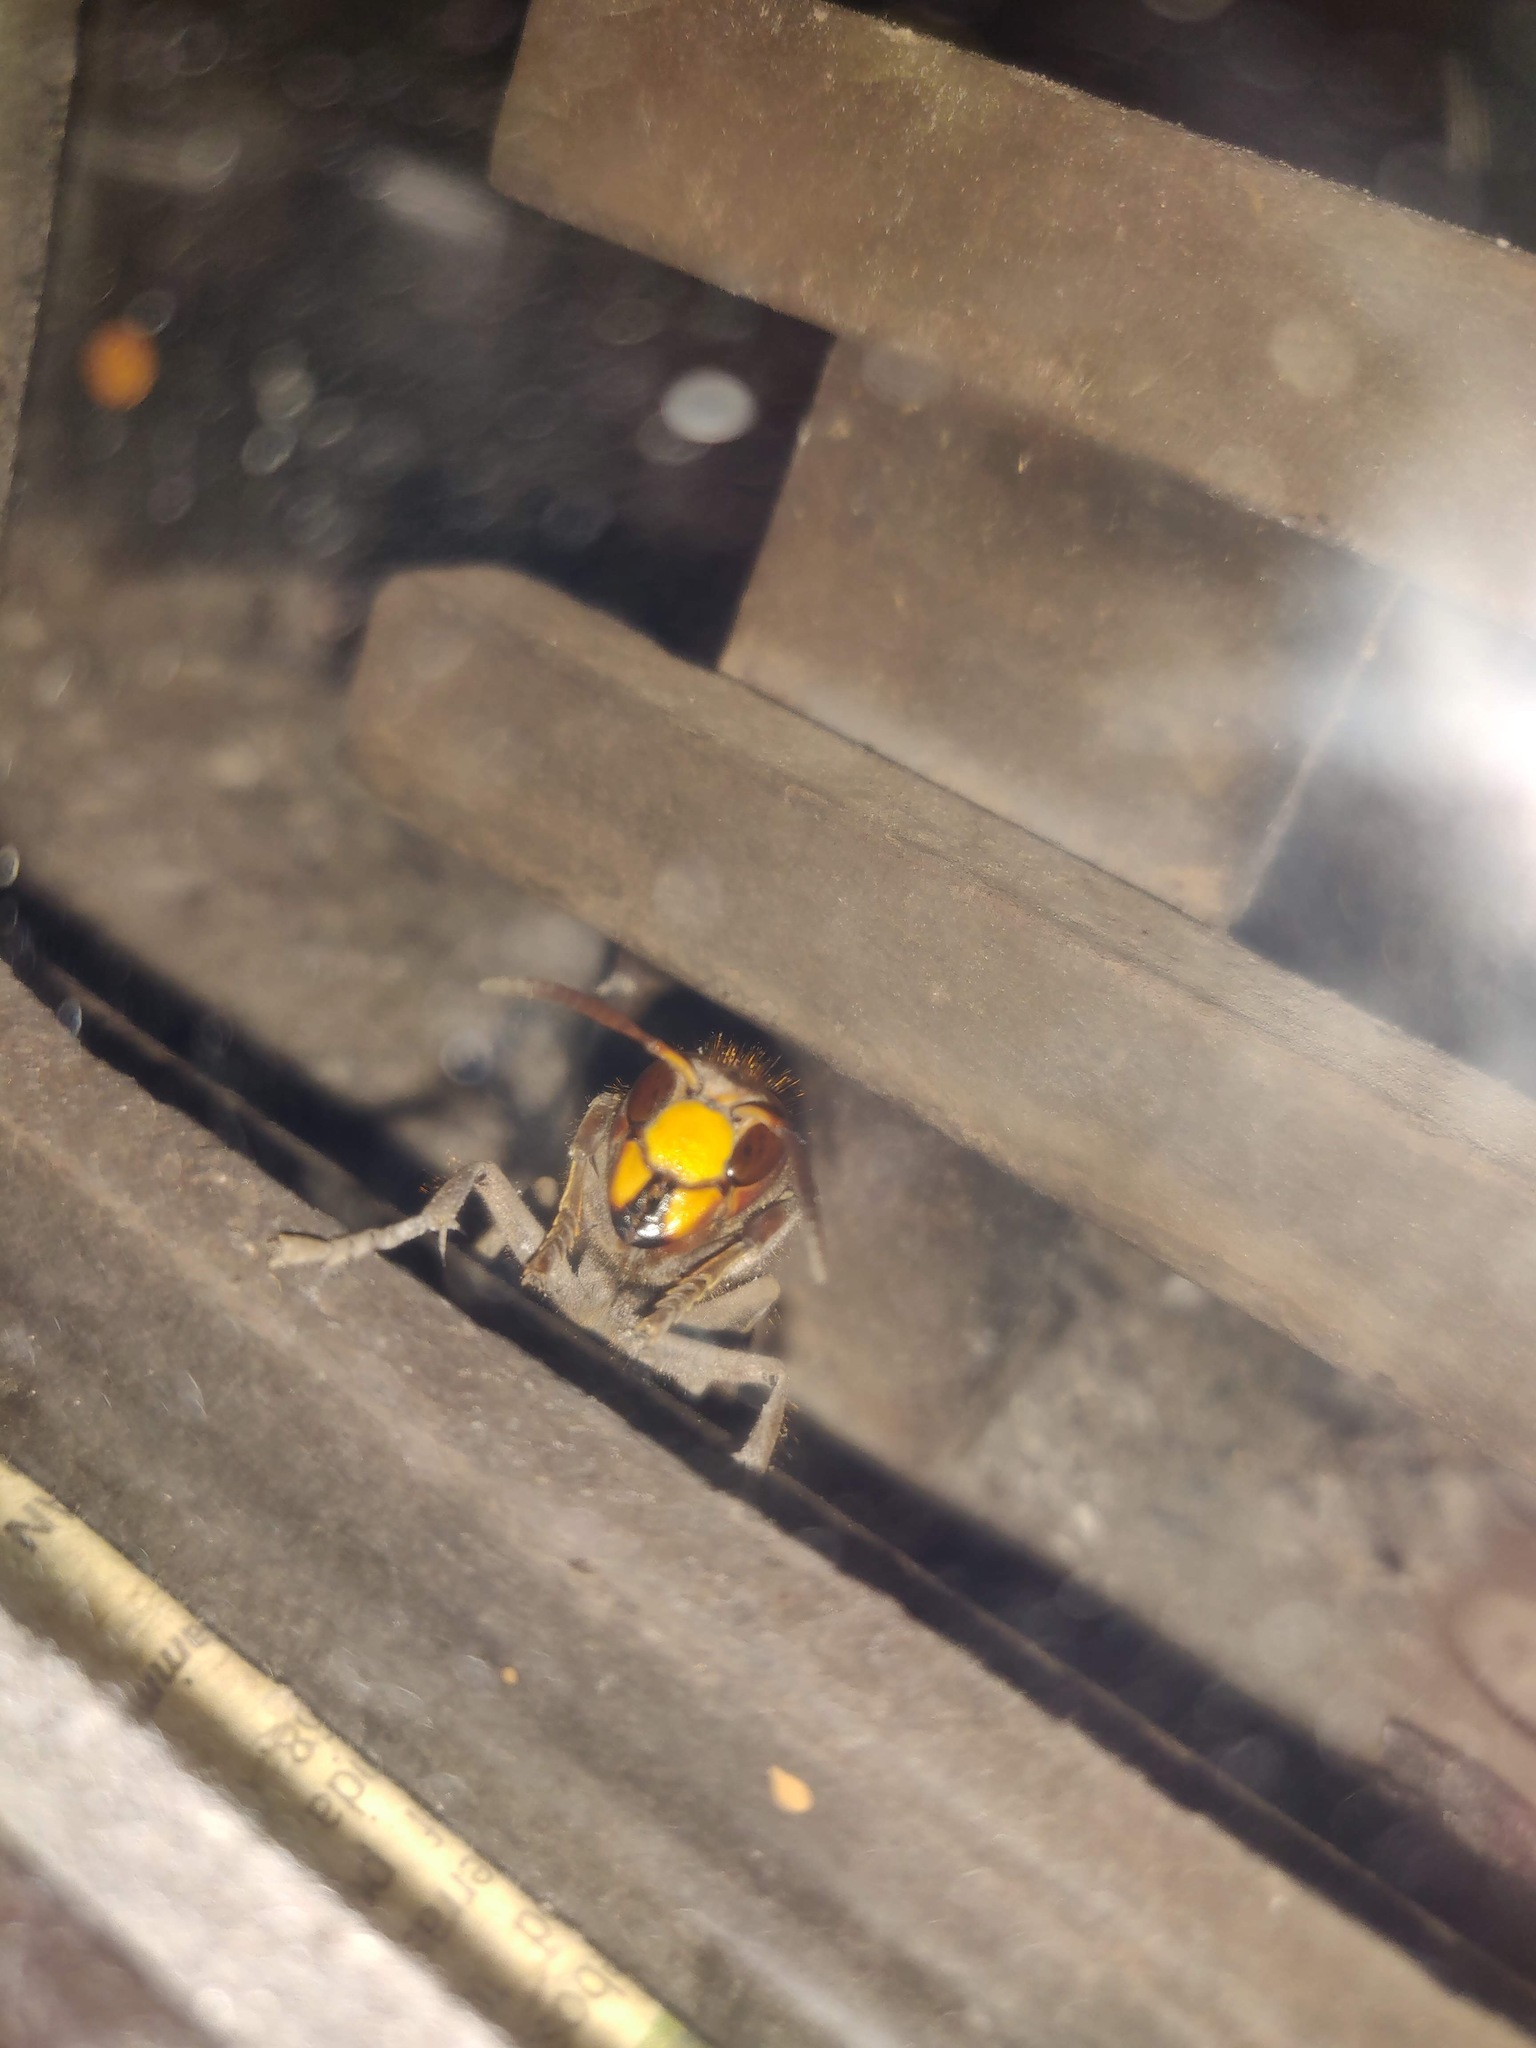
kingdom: Animalia
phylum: Arthropoda
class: Insecta
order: Hymenoptera
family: Vespidae
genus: Vespa
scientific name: Vespa crabro
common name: Hornet
